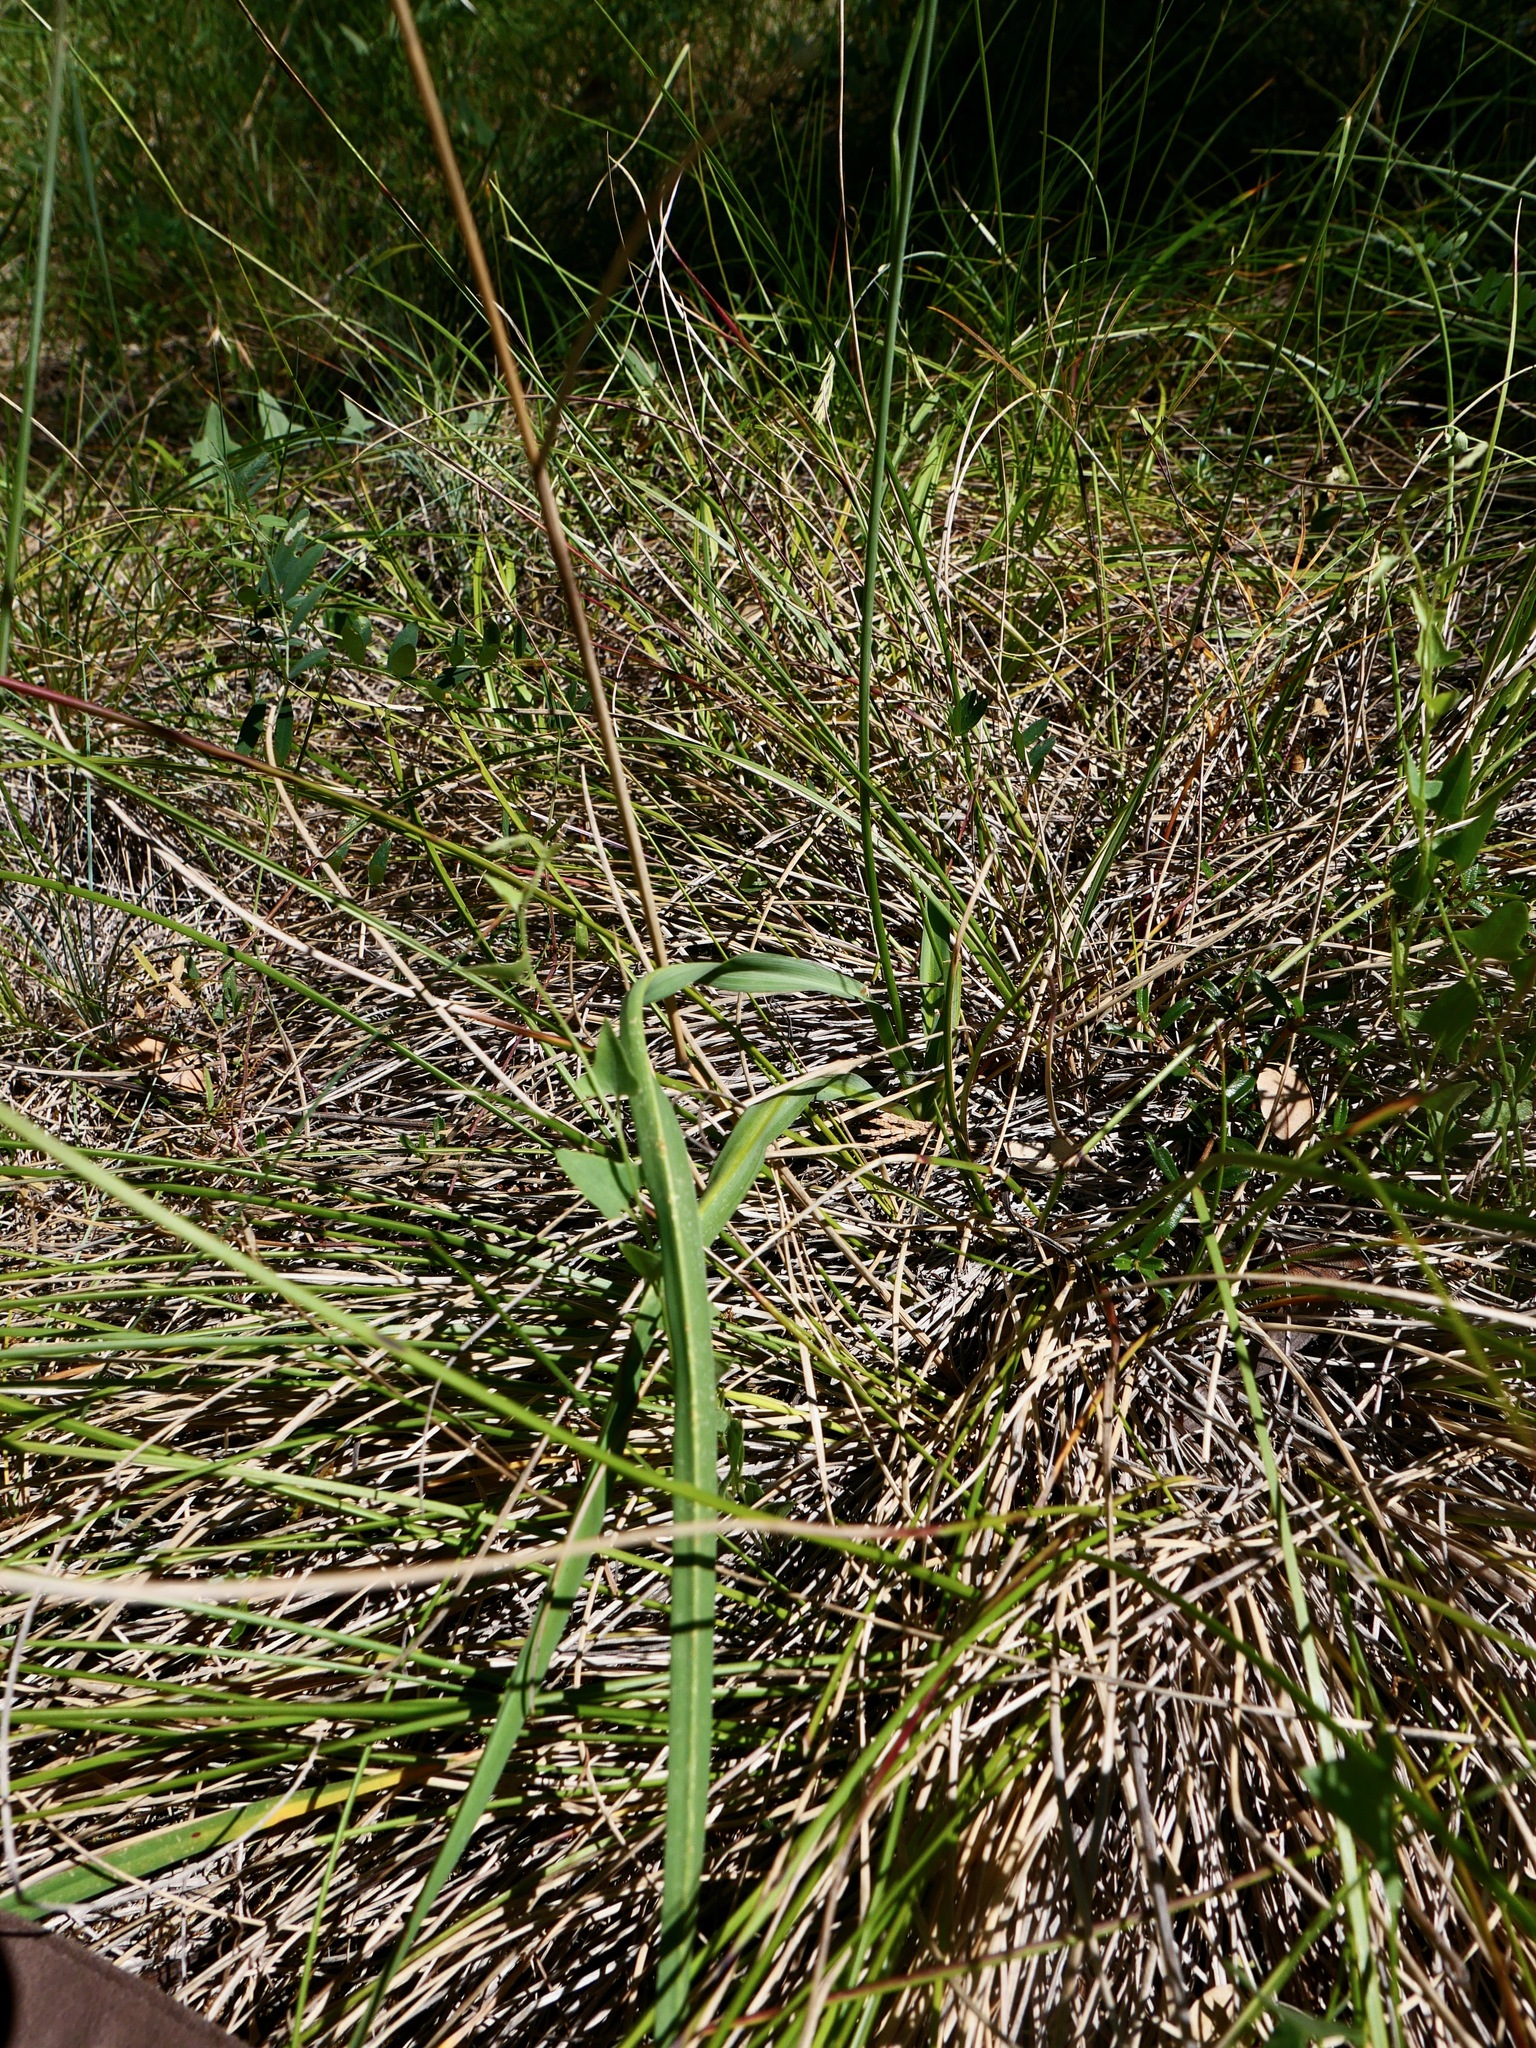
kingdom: Plantae
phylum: Tracheophyta
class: Liliopsida
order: Asparagales
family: Asparagaceae
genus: Hastingsia
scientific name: Hastingsia alba
